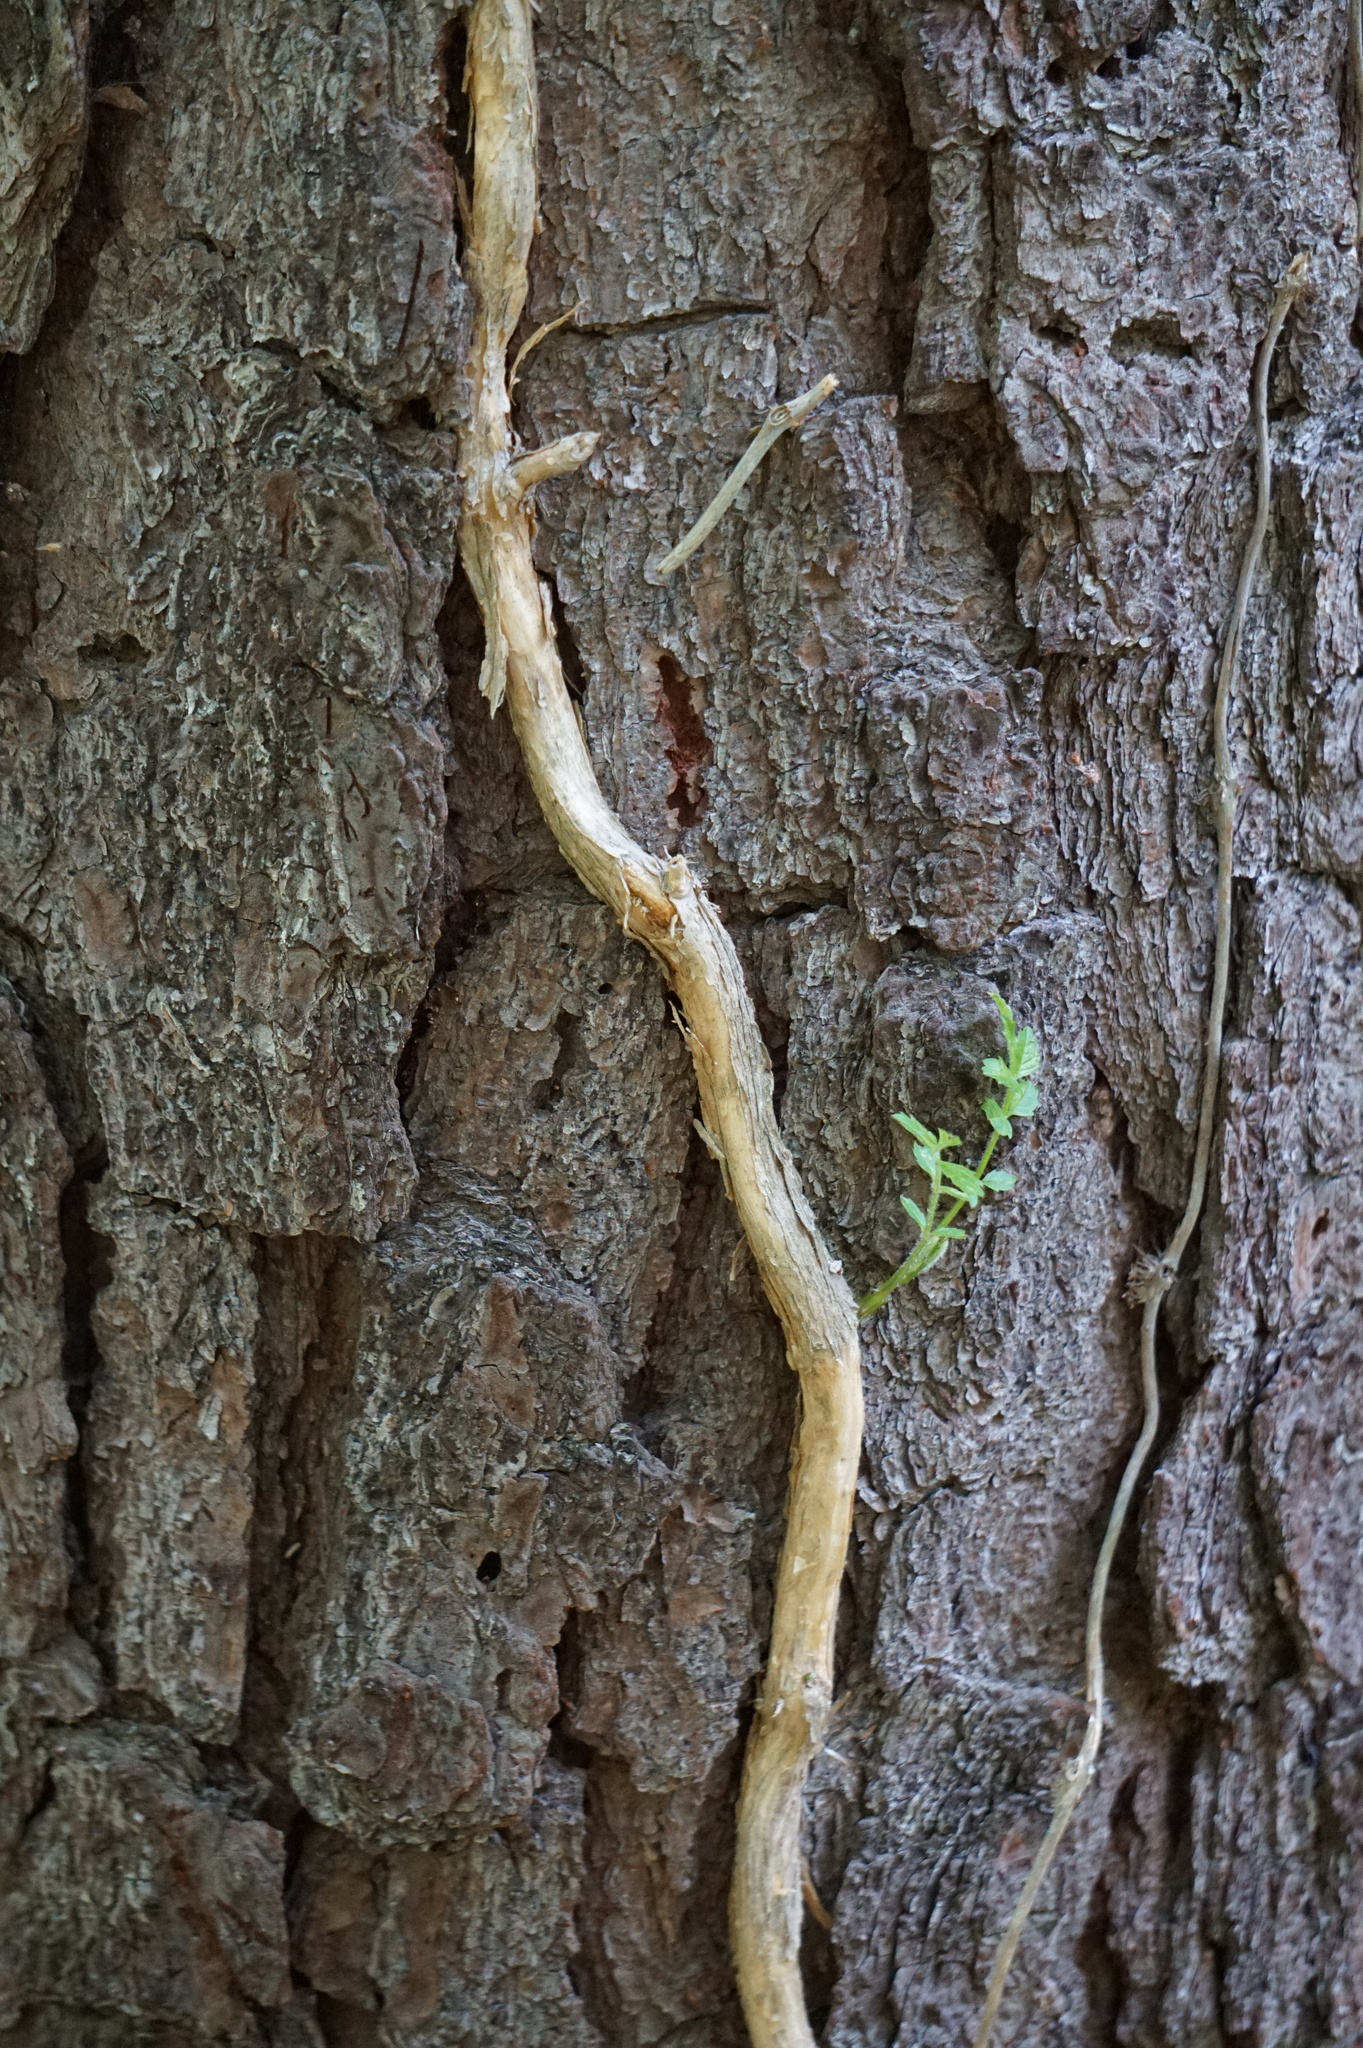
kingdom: Plantae
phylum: Tracheophyta
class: Magnoliopsida
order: Lamiales
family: Bignoniaceae
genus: Campsis
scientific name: Campsis radicans
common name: Trumpet-creeper
